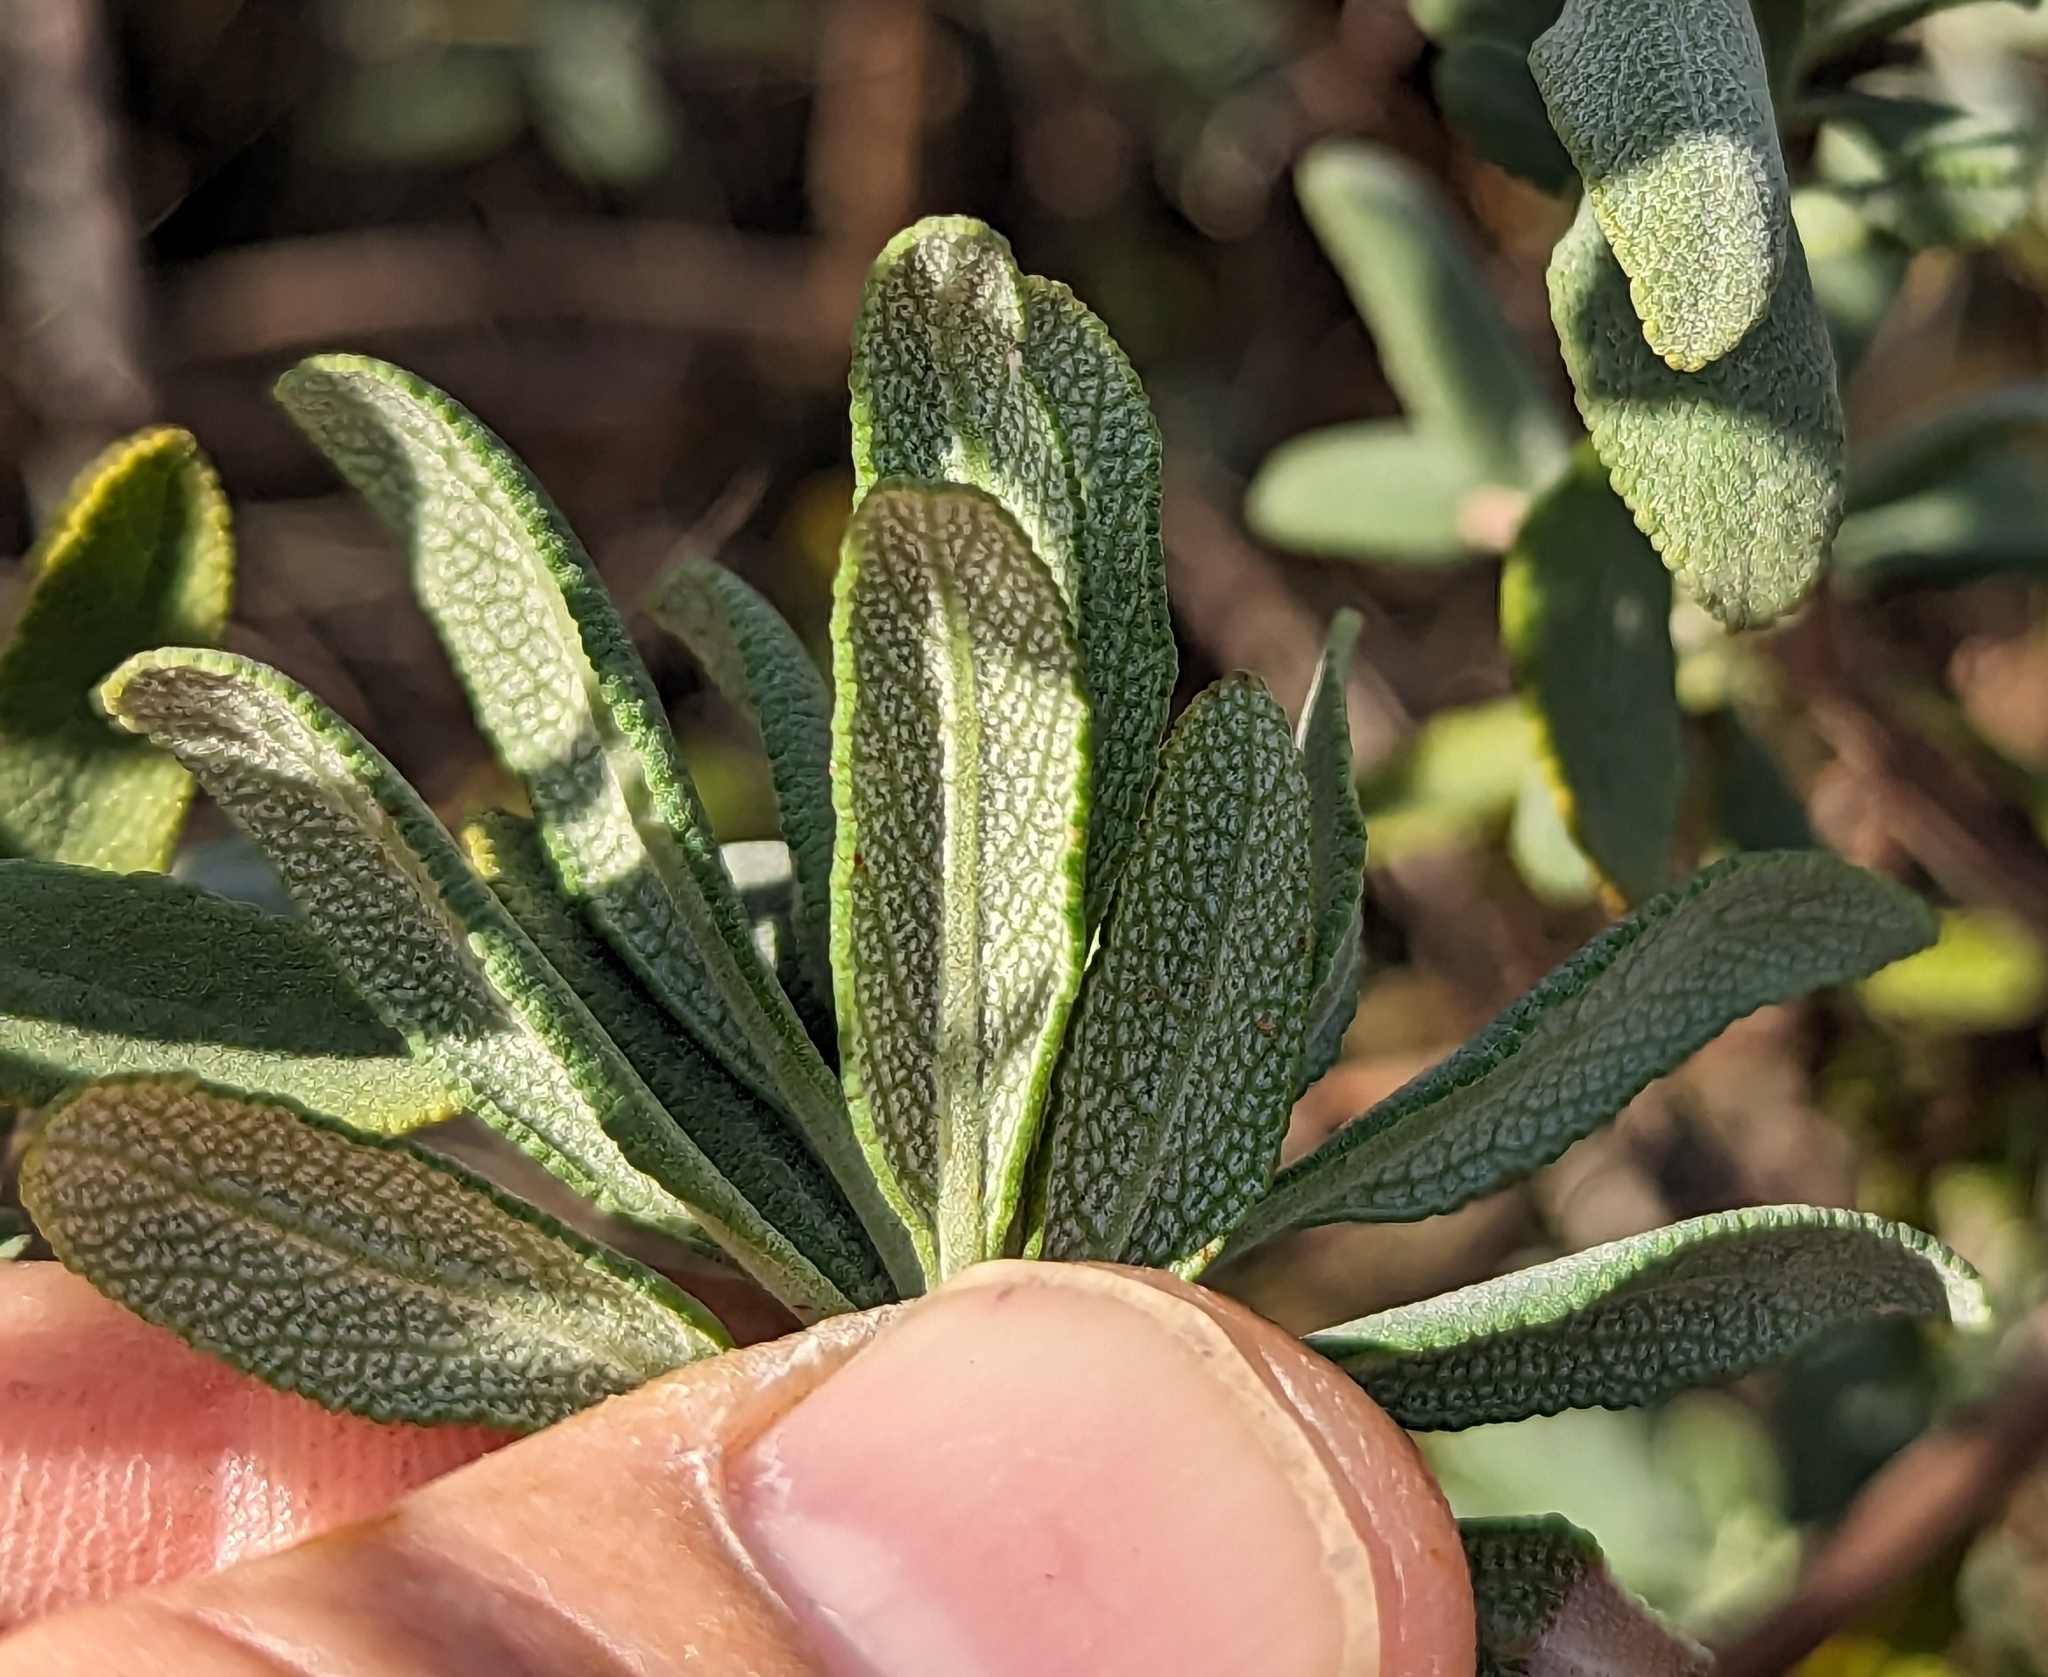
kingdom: Plantae
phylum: Tracheophyta
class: Magnoliopsida
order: Lamiales
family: Lamiaceae
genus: Salvia
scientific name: Salvia clevelandii
